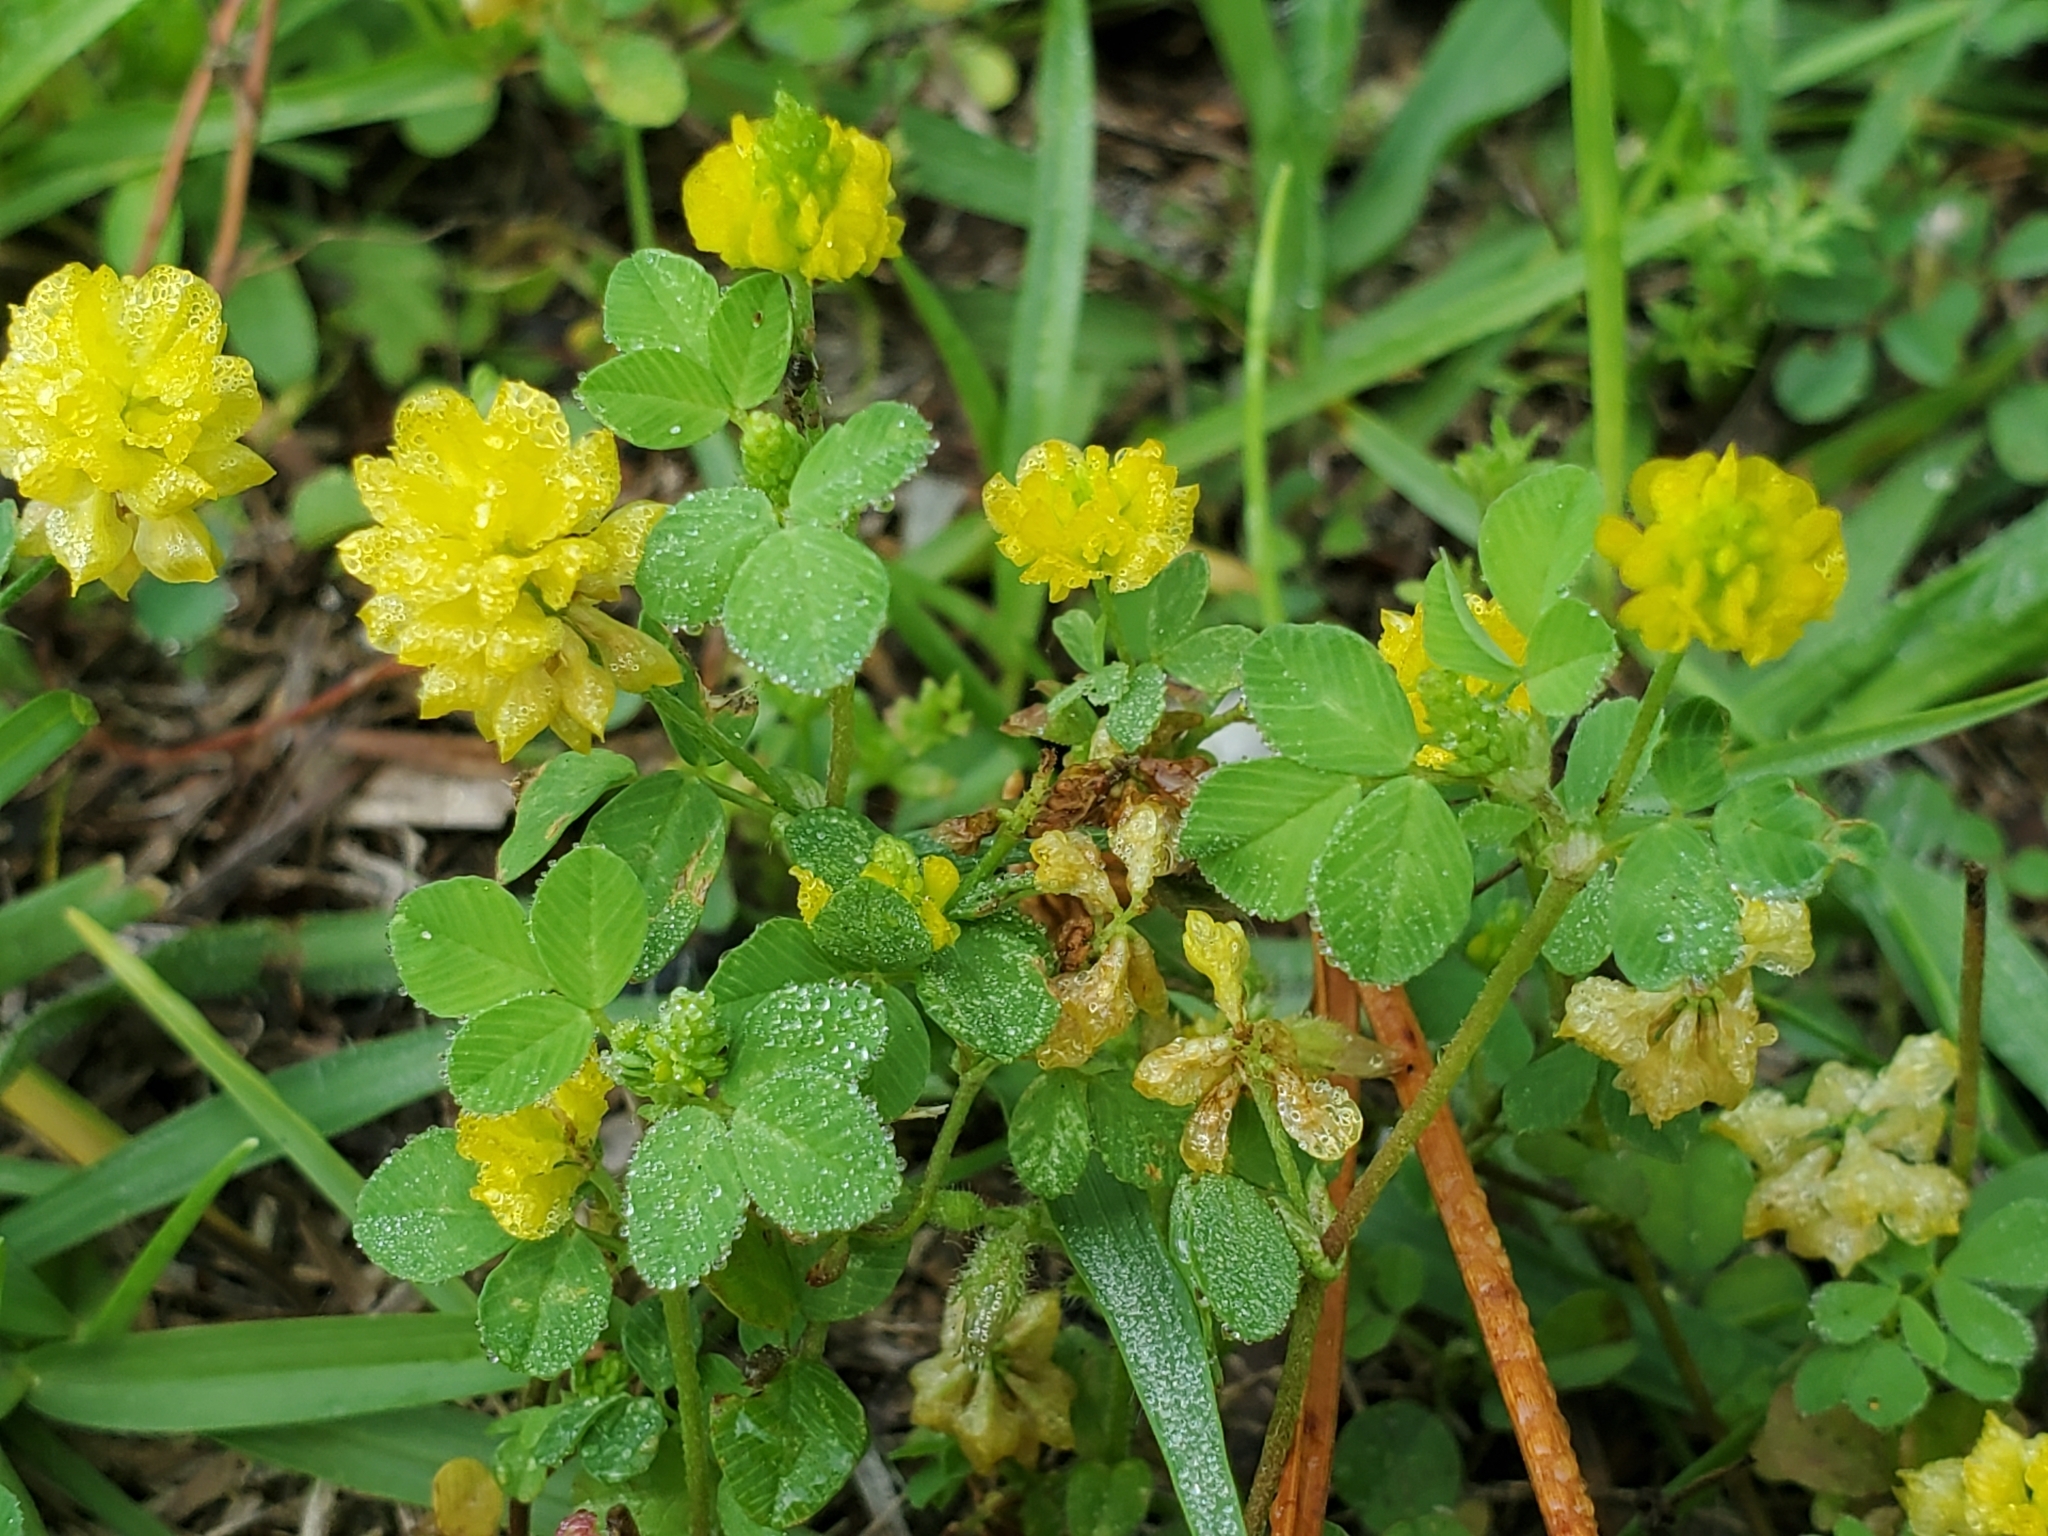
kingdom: Plantae
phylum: Tracheophyta
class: Magnoliopsida
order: Fabales
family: Fabaceae
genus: Trifolium
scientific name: Trifolium campestre
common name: Field clover
